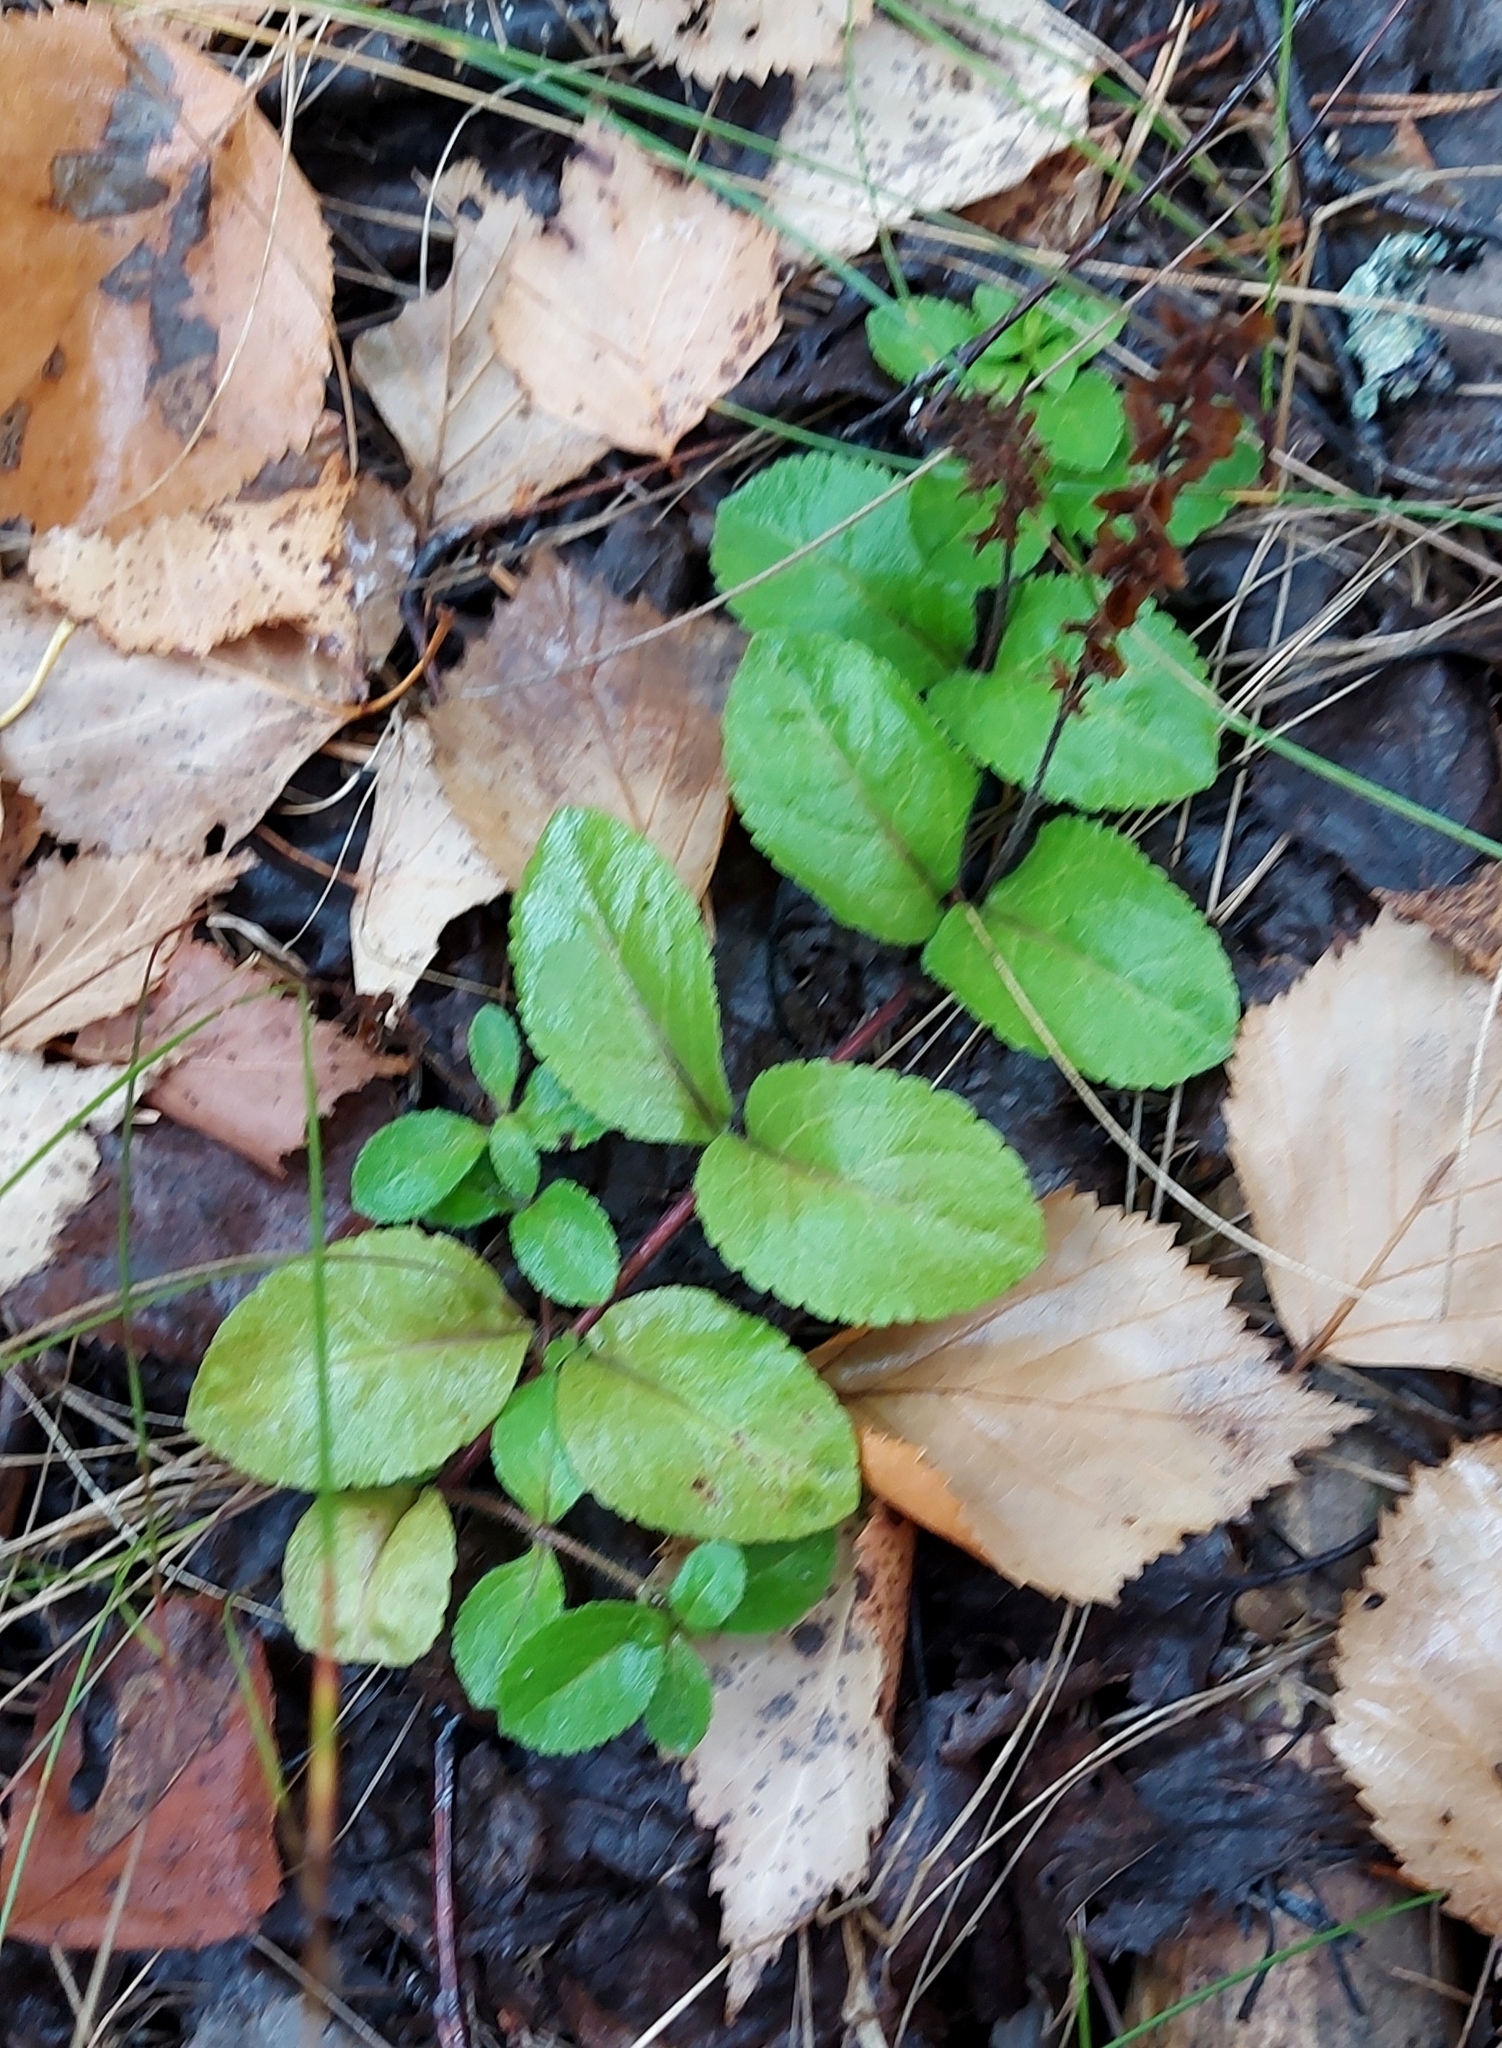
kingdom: Plantae
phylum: Tracheophyta
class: Magnoliopsida
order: Lamiales
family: Plantaginaceae
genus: Veronica
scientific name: Veronica officinalis
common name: Common speedwell
